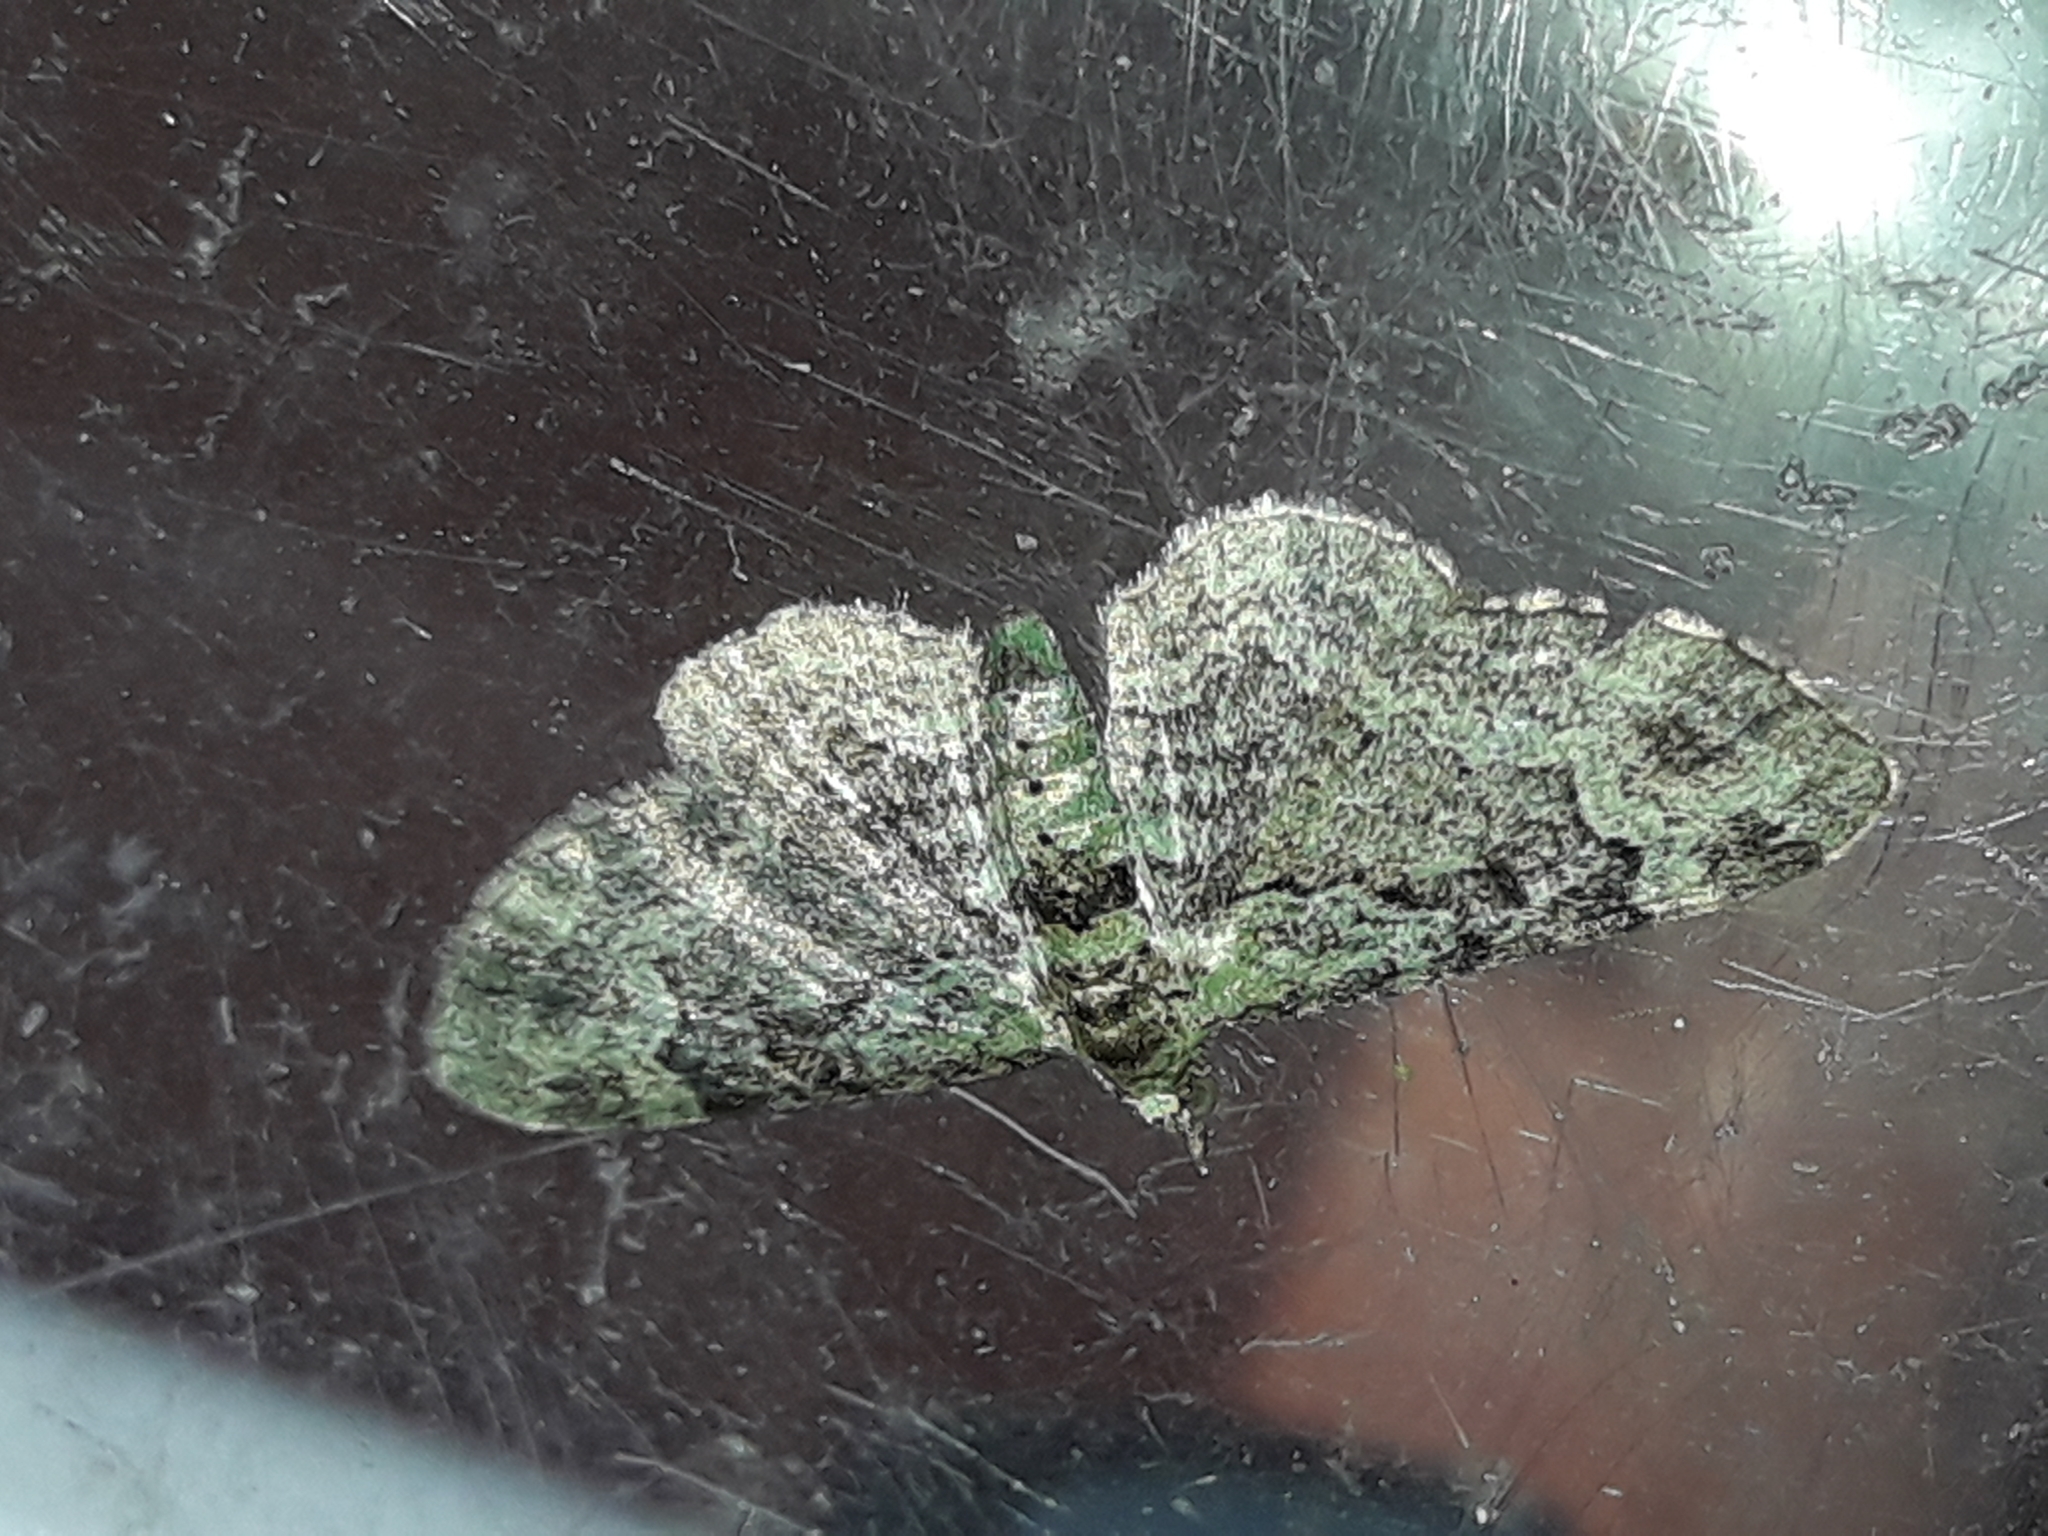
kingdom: Animalia
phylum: Arthropoda
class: Insecta
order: Lepidoptera
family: Geometridae
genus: Pasiphila
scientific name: Pasiphila rectangulata
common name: Green pug
